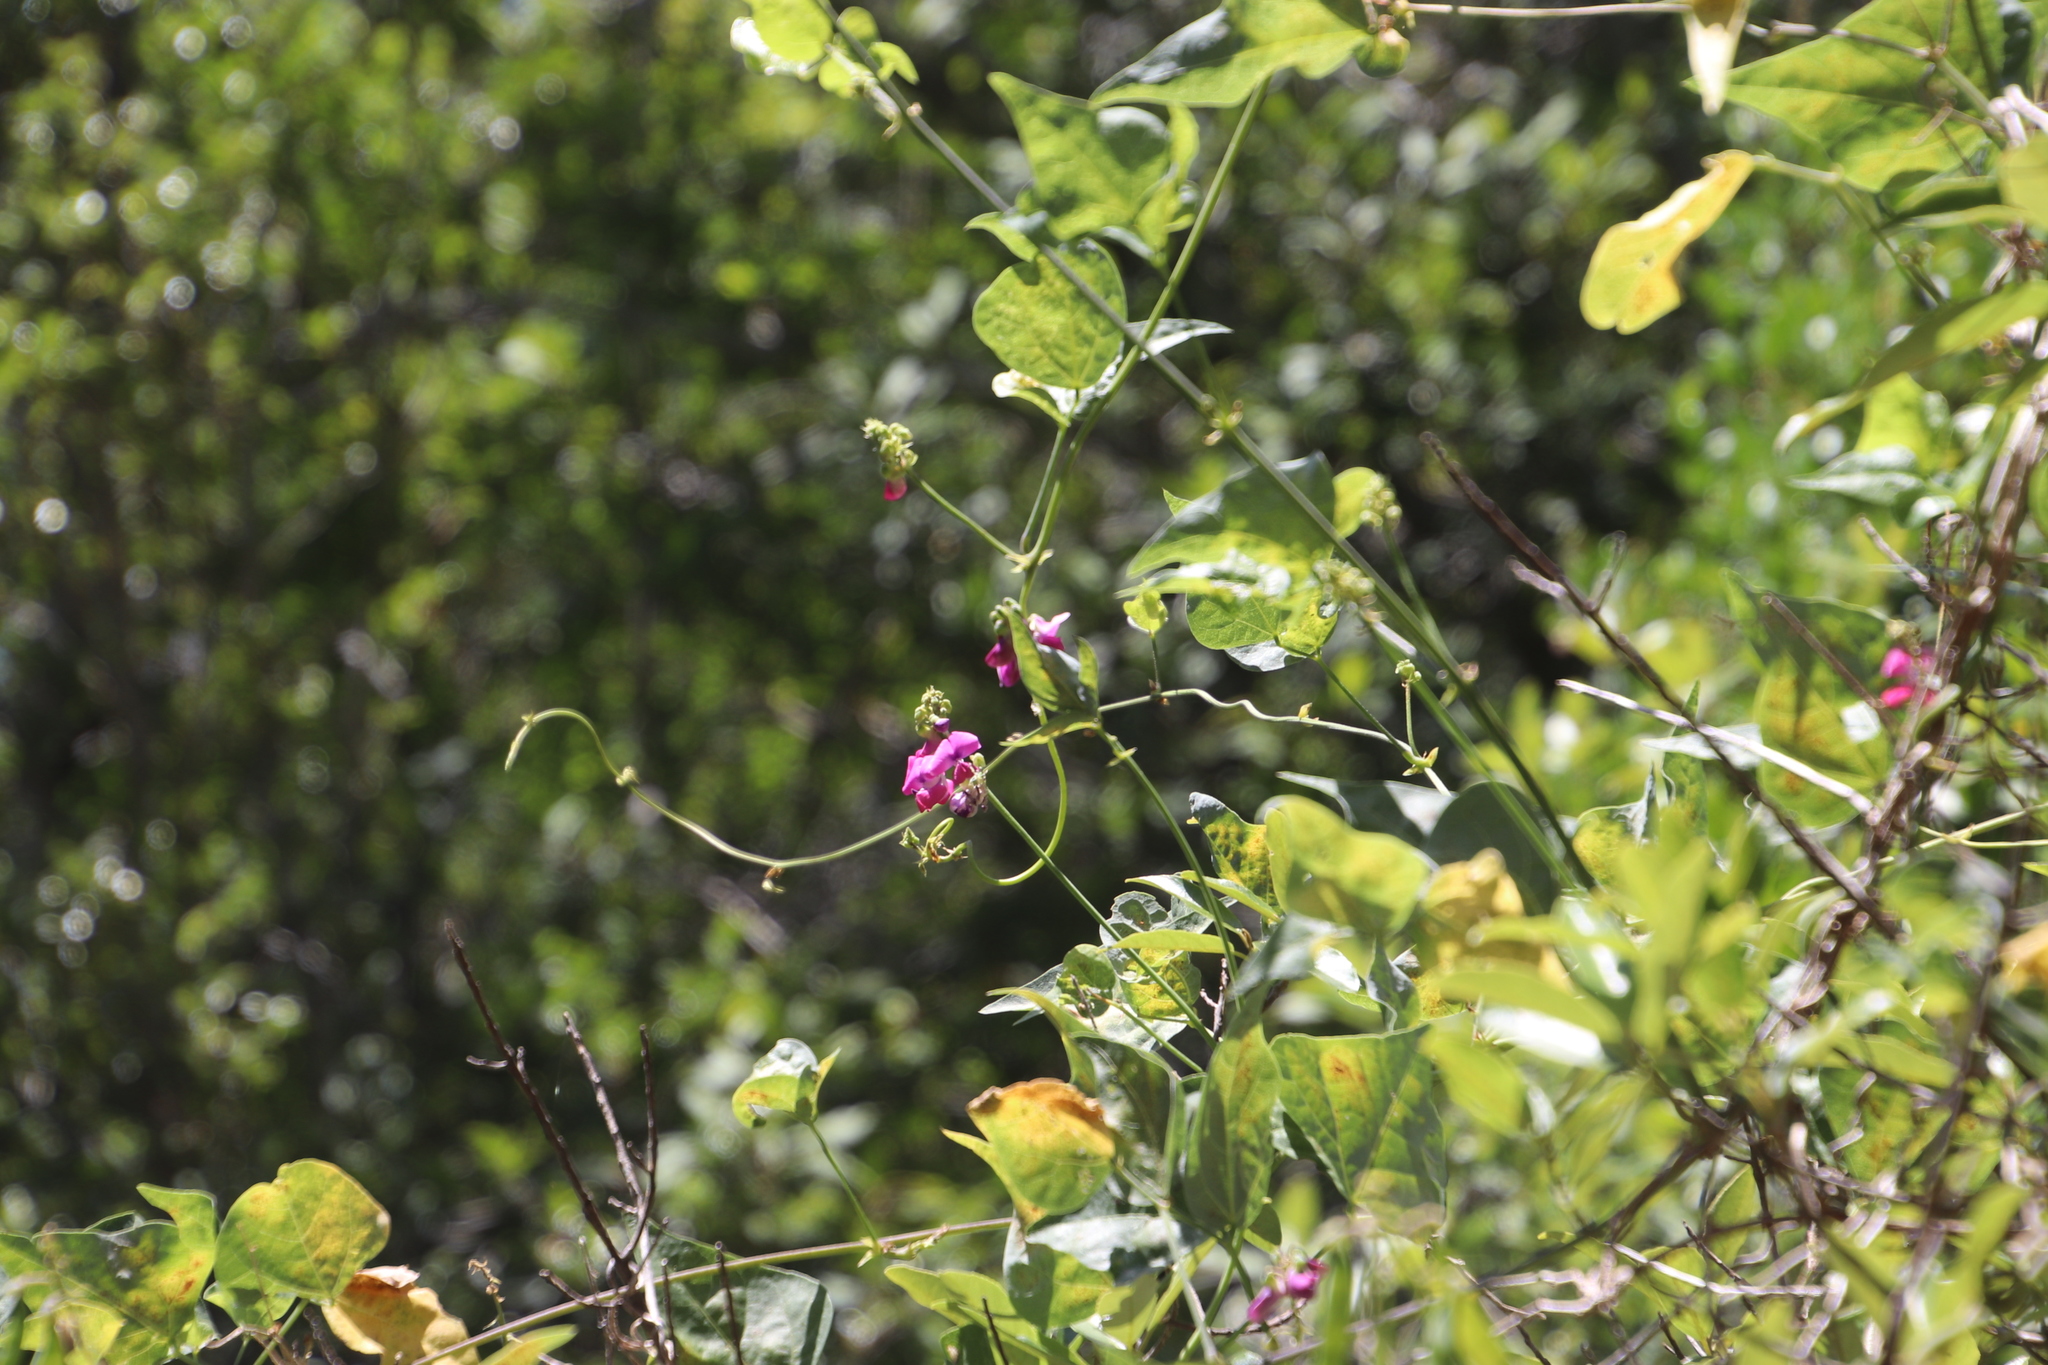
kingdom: Plantae
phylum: Tracheophyta
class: Magnoliopsida
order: Fabales
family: Fabaceae
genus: Dipogon
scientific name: Dipogon lignosus
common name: Okie bean
